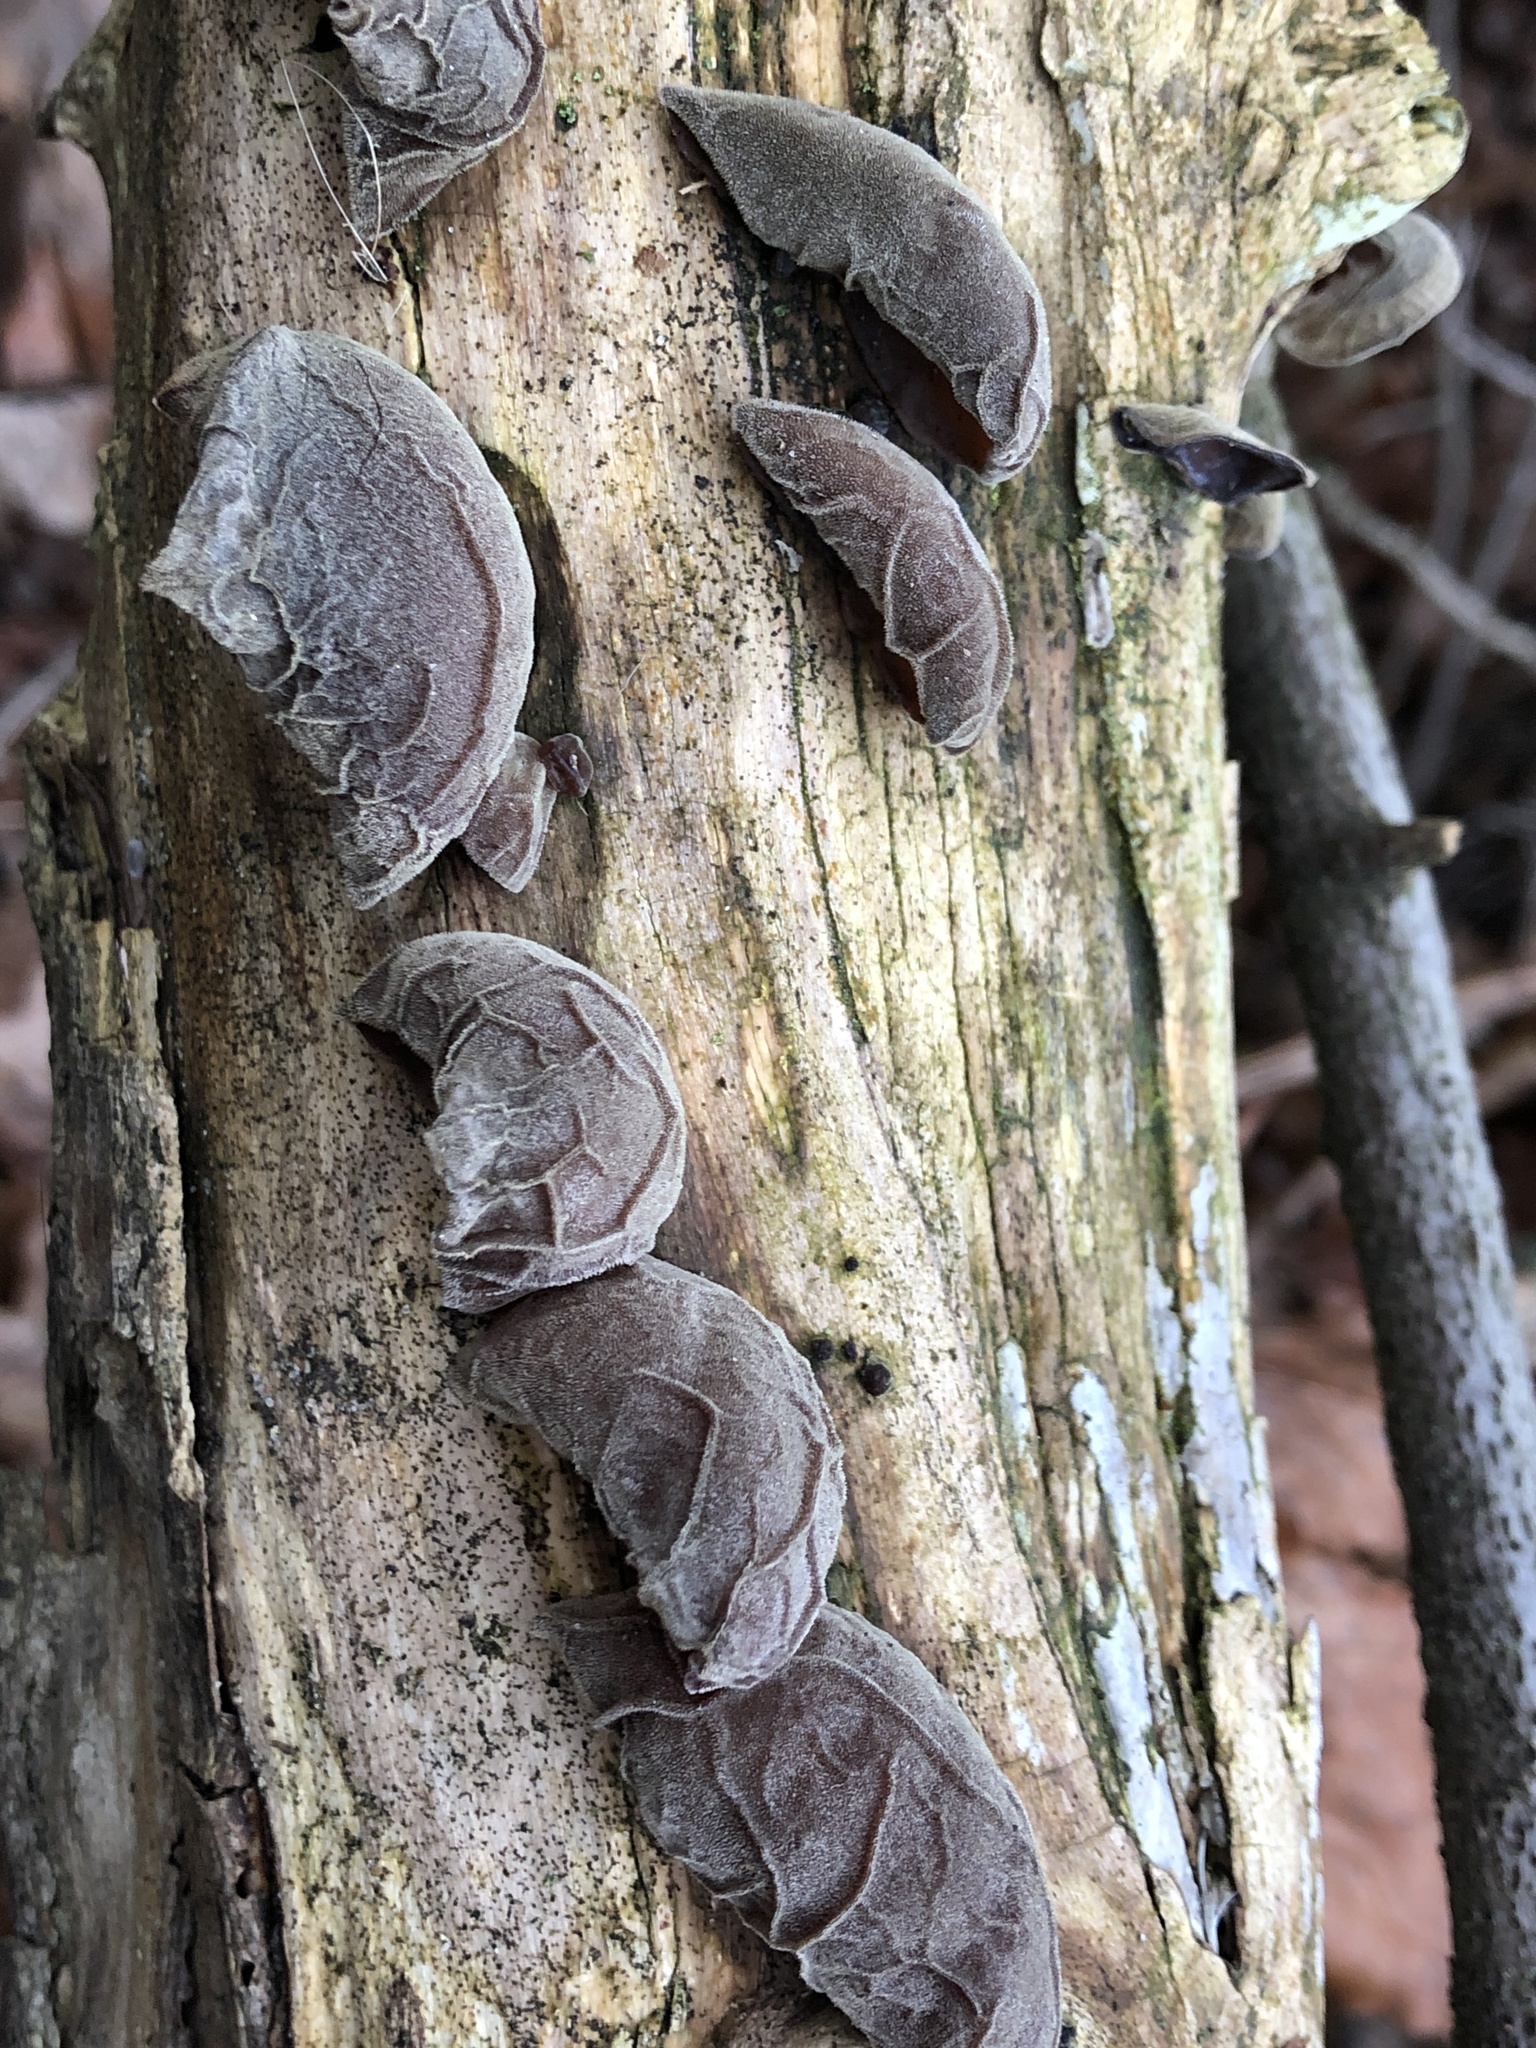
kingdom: Fungi
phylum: Basidiomycota
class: Agaricomycetes
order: Auriculariales
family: Auriculariaceae
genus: Auricularia
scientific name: Auricularia auricula-judae
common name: Jelly ear
